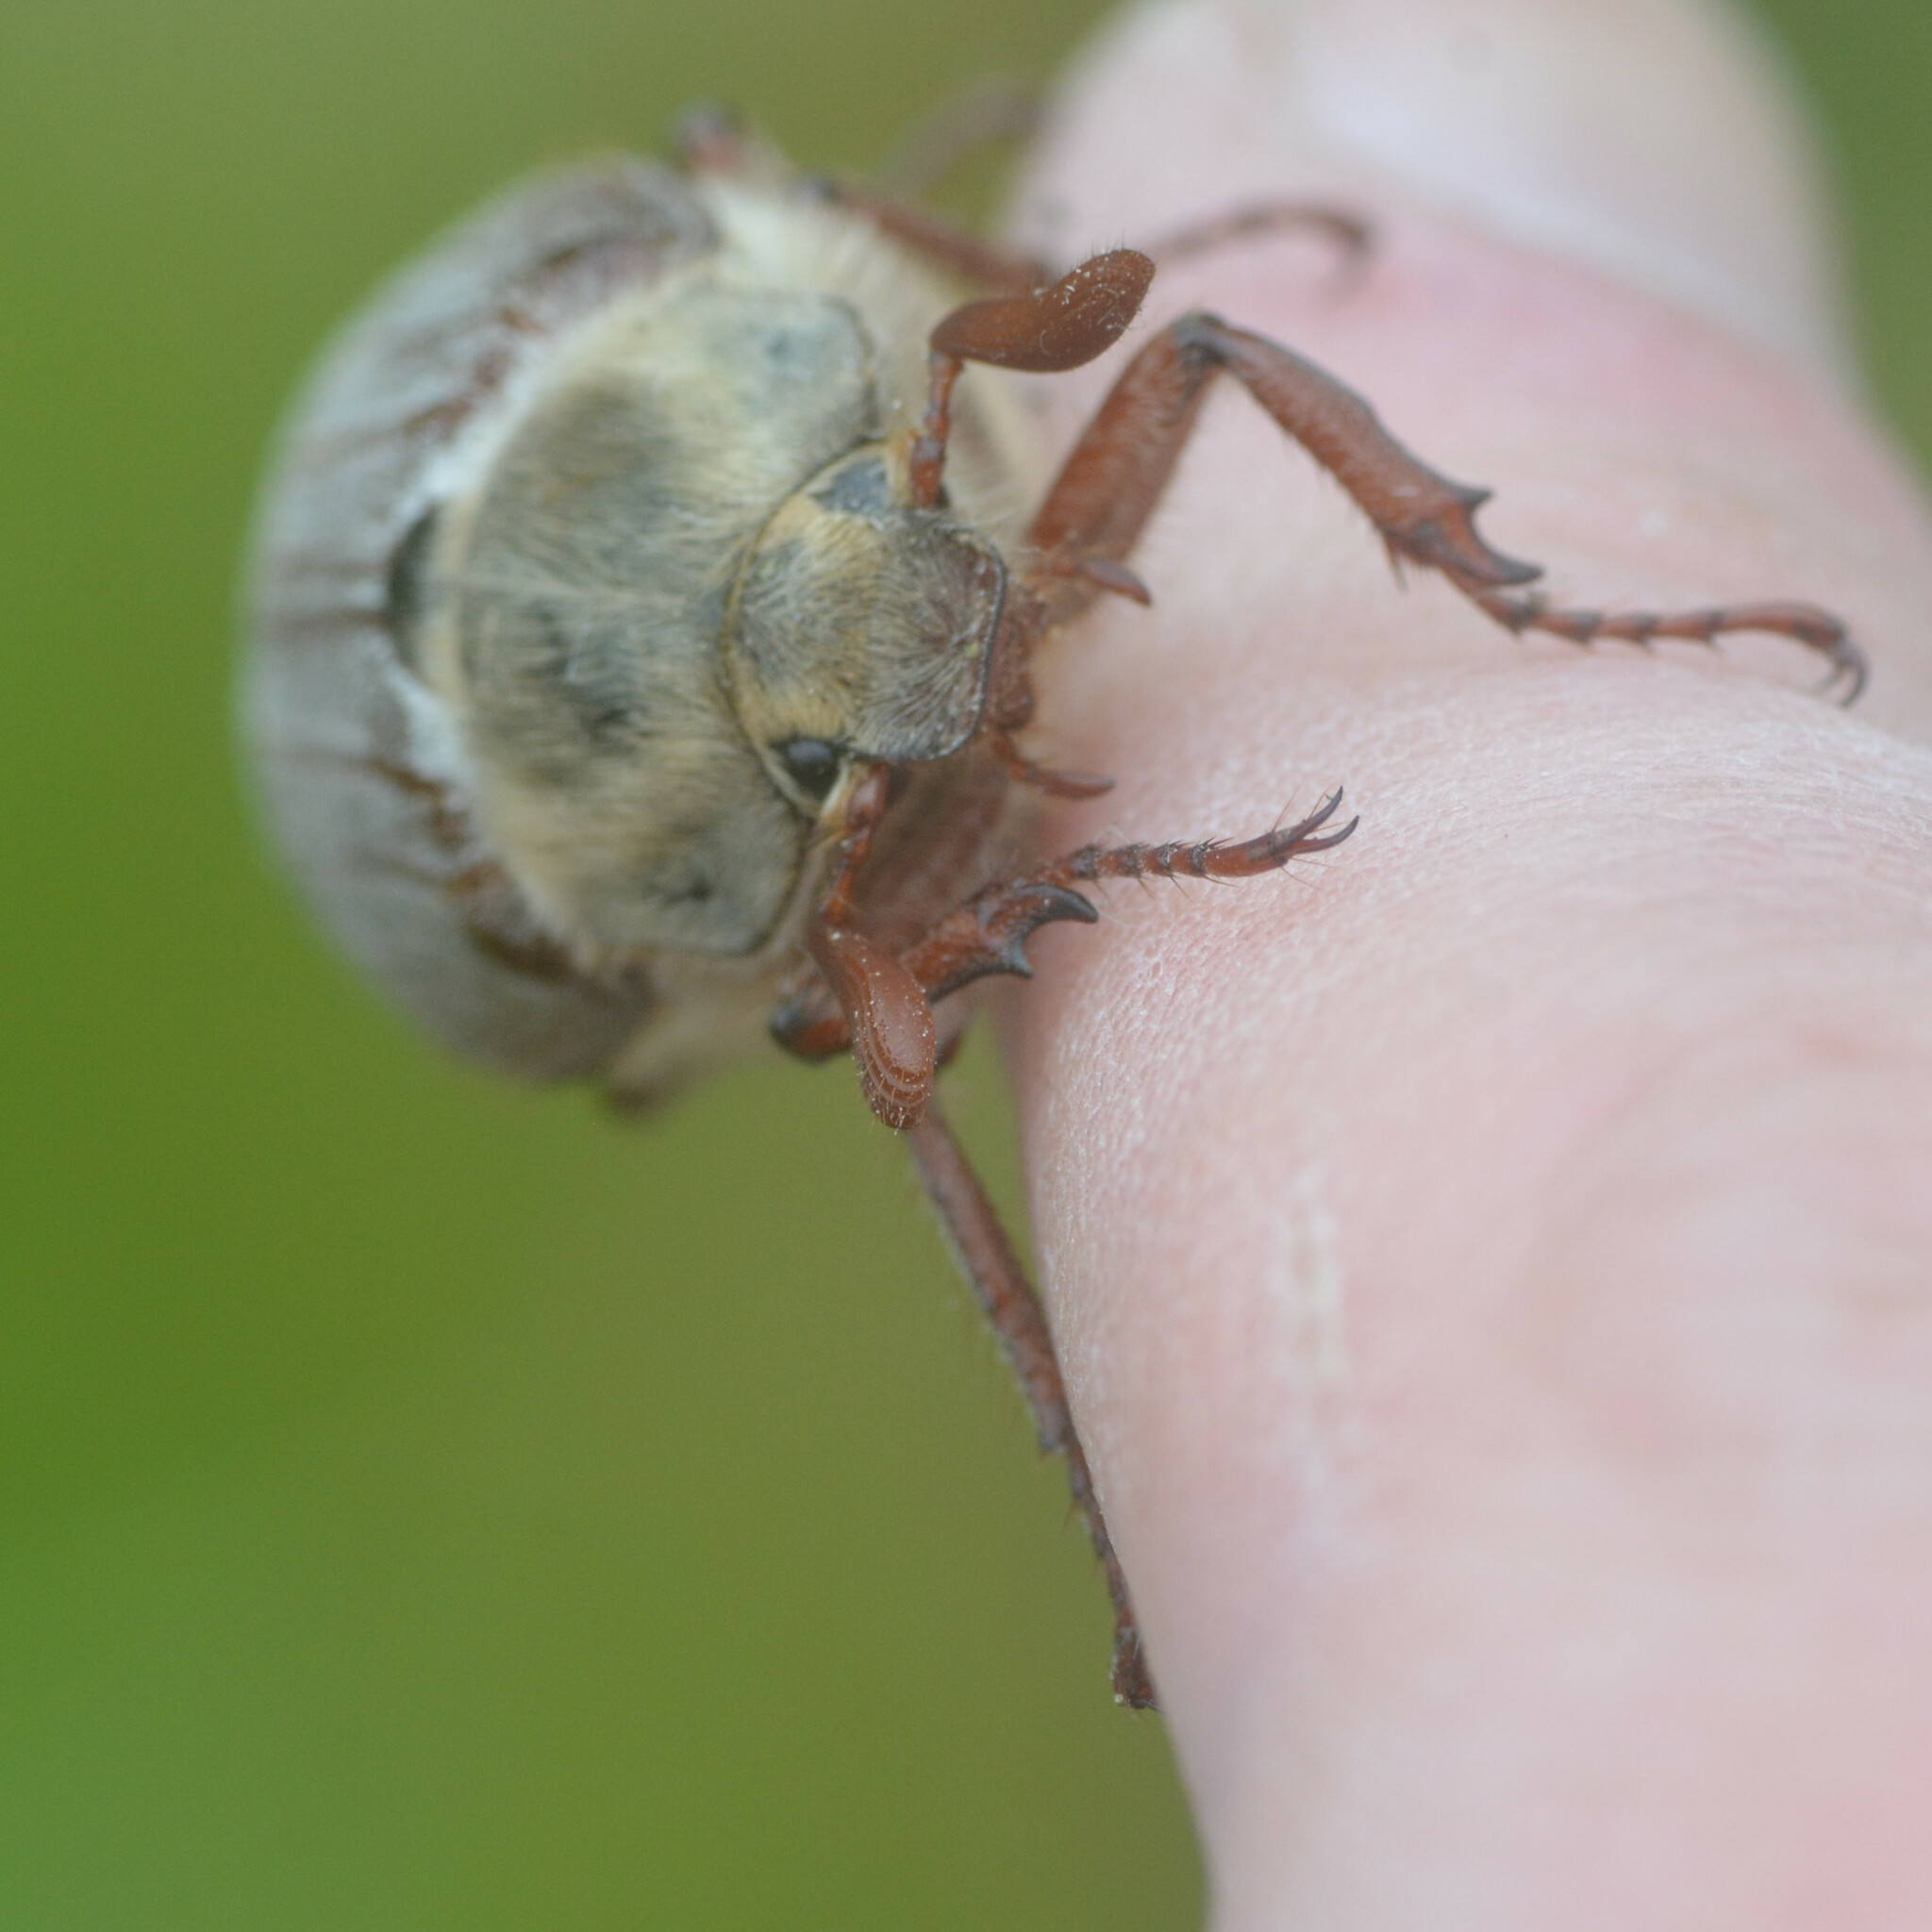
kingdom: Animalia
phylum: Arthropoda
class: Insecta
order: Coleoptera
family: Scarabaeidae
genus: Melolontha
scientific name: Melolontha melolontha
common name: Cockchafer maybeetle
